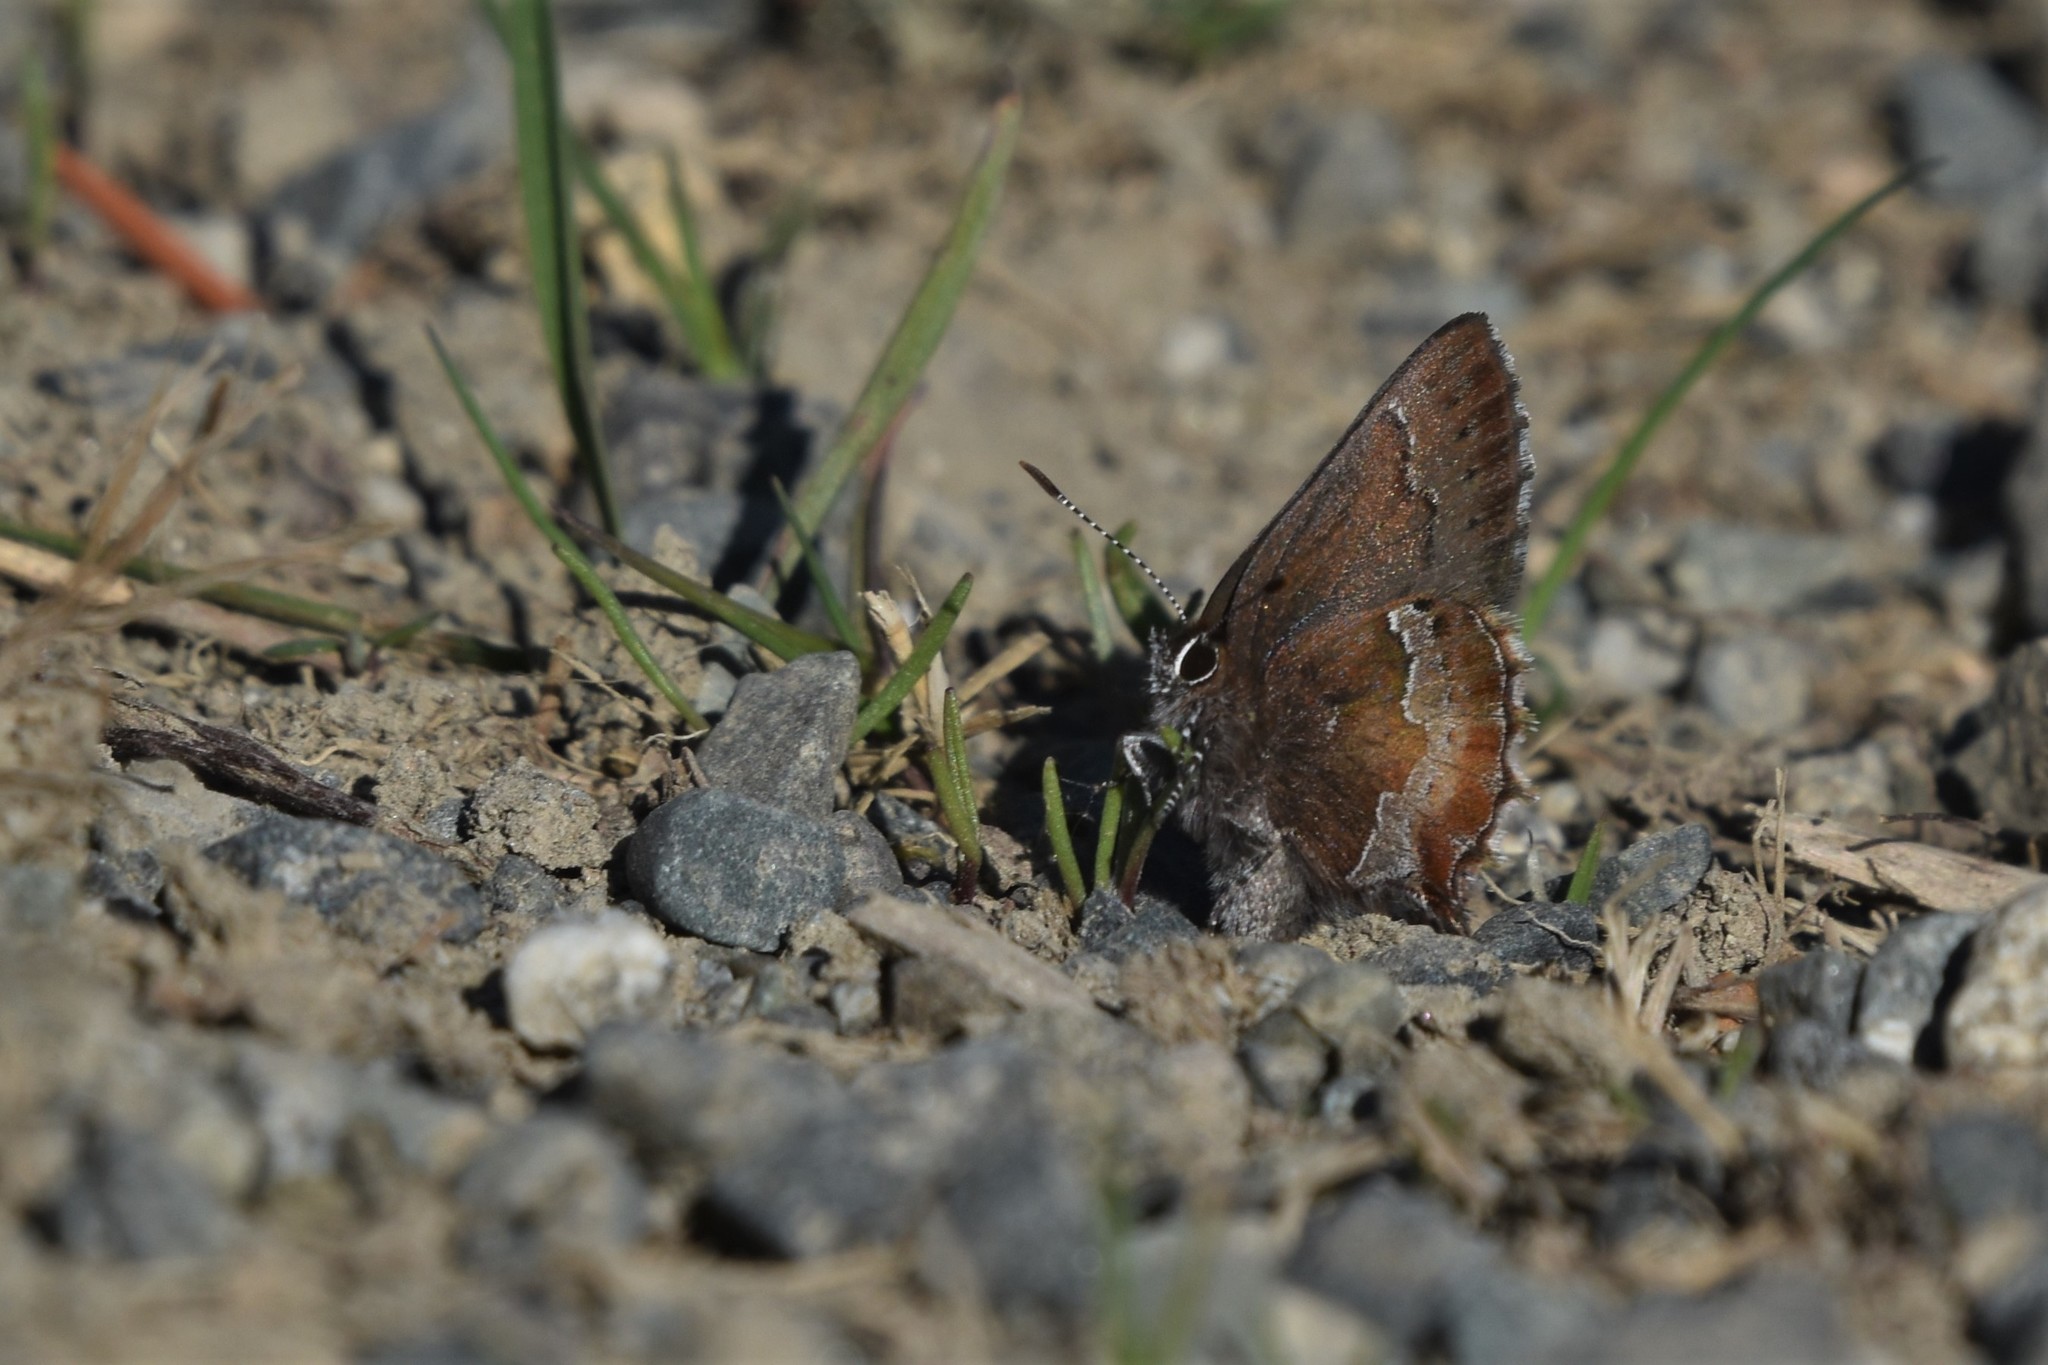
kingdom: Animalia
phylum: Arthropoda
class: Insecta
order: Lepidoptera
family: Lycaenidae
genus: Callophrys
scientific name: Callophrys mossii
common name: Moss' elfin
